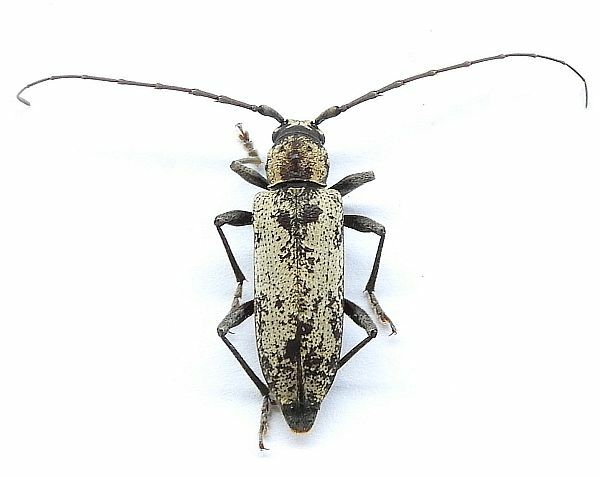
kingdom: Animalia
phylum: Arthropoda
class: Insecta
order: Coleoptera
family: Cerambycidae
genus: Enaphalodes
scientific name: Enaphalodes niveitectus
